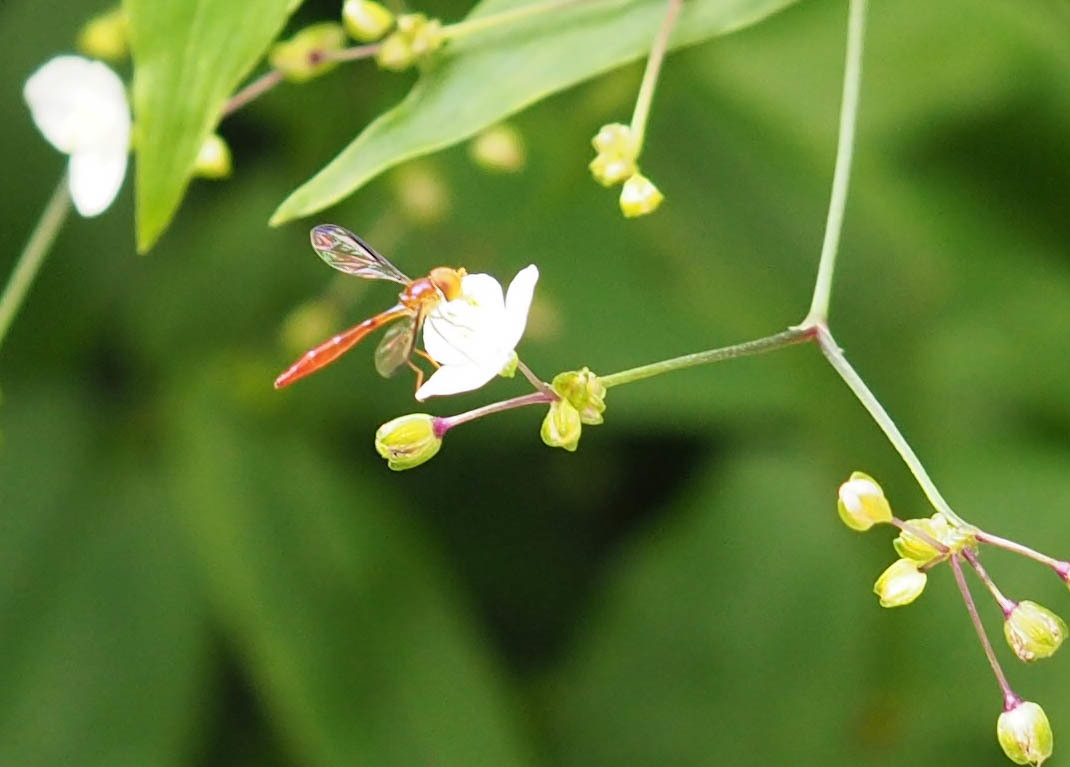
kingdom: Animalia
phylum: Arthropoda
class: Insecta
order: Diptera
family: Syrphidae
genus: Victoriana
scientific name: Victoriana parvicornis
